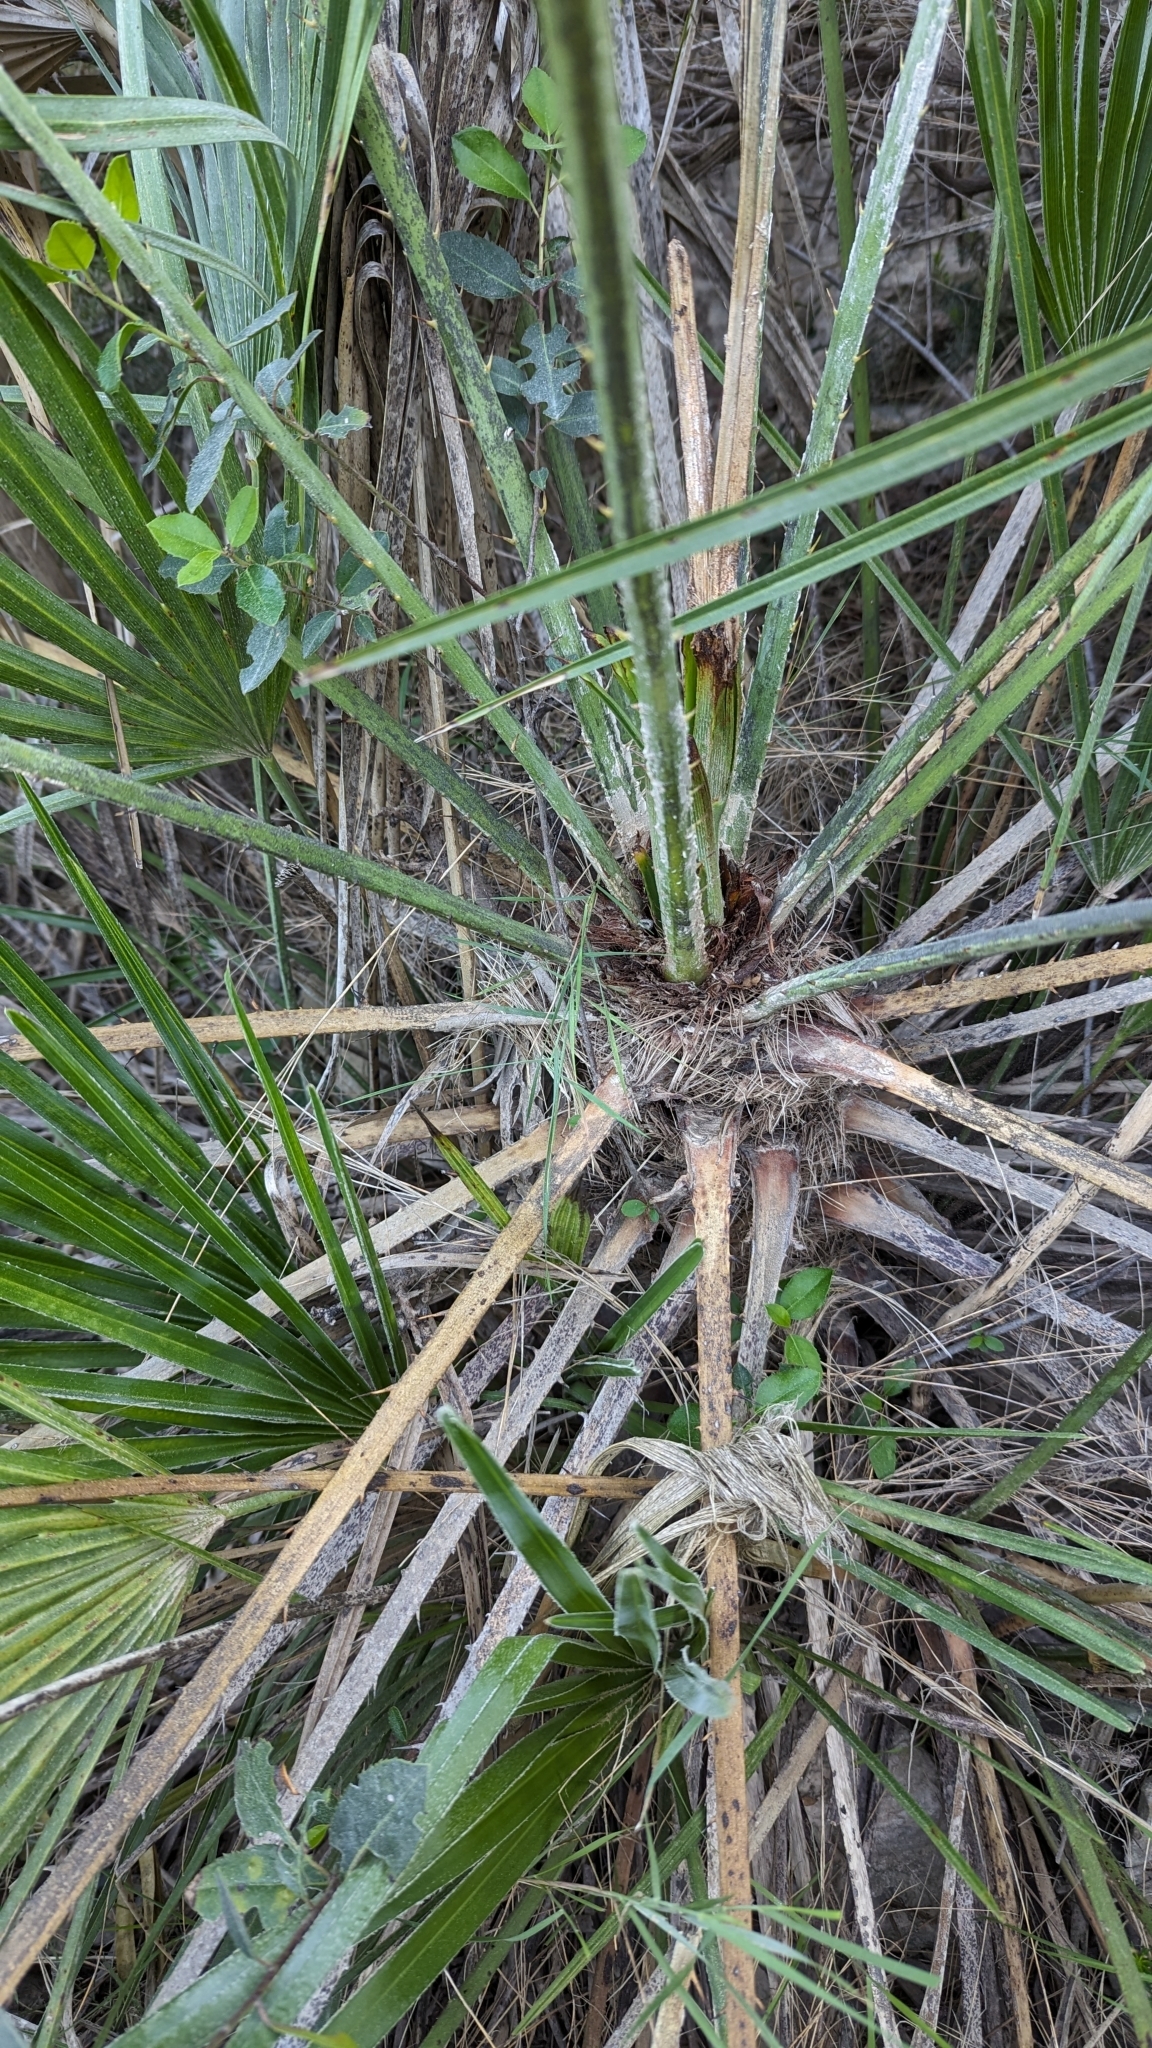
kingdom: Plantae
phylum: Tracheophyta
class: Liliopsida
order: Arecales
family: Arecaceae
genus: Chamaerops
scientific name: Chamaerops humilis
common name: Dwarf fan palm
